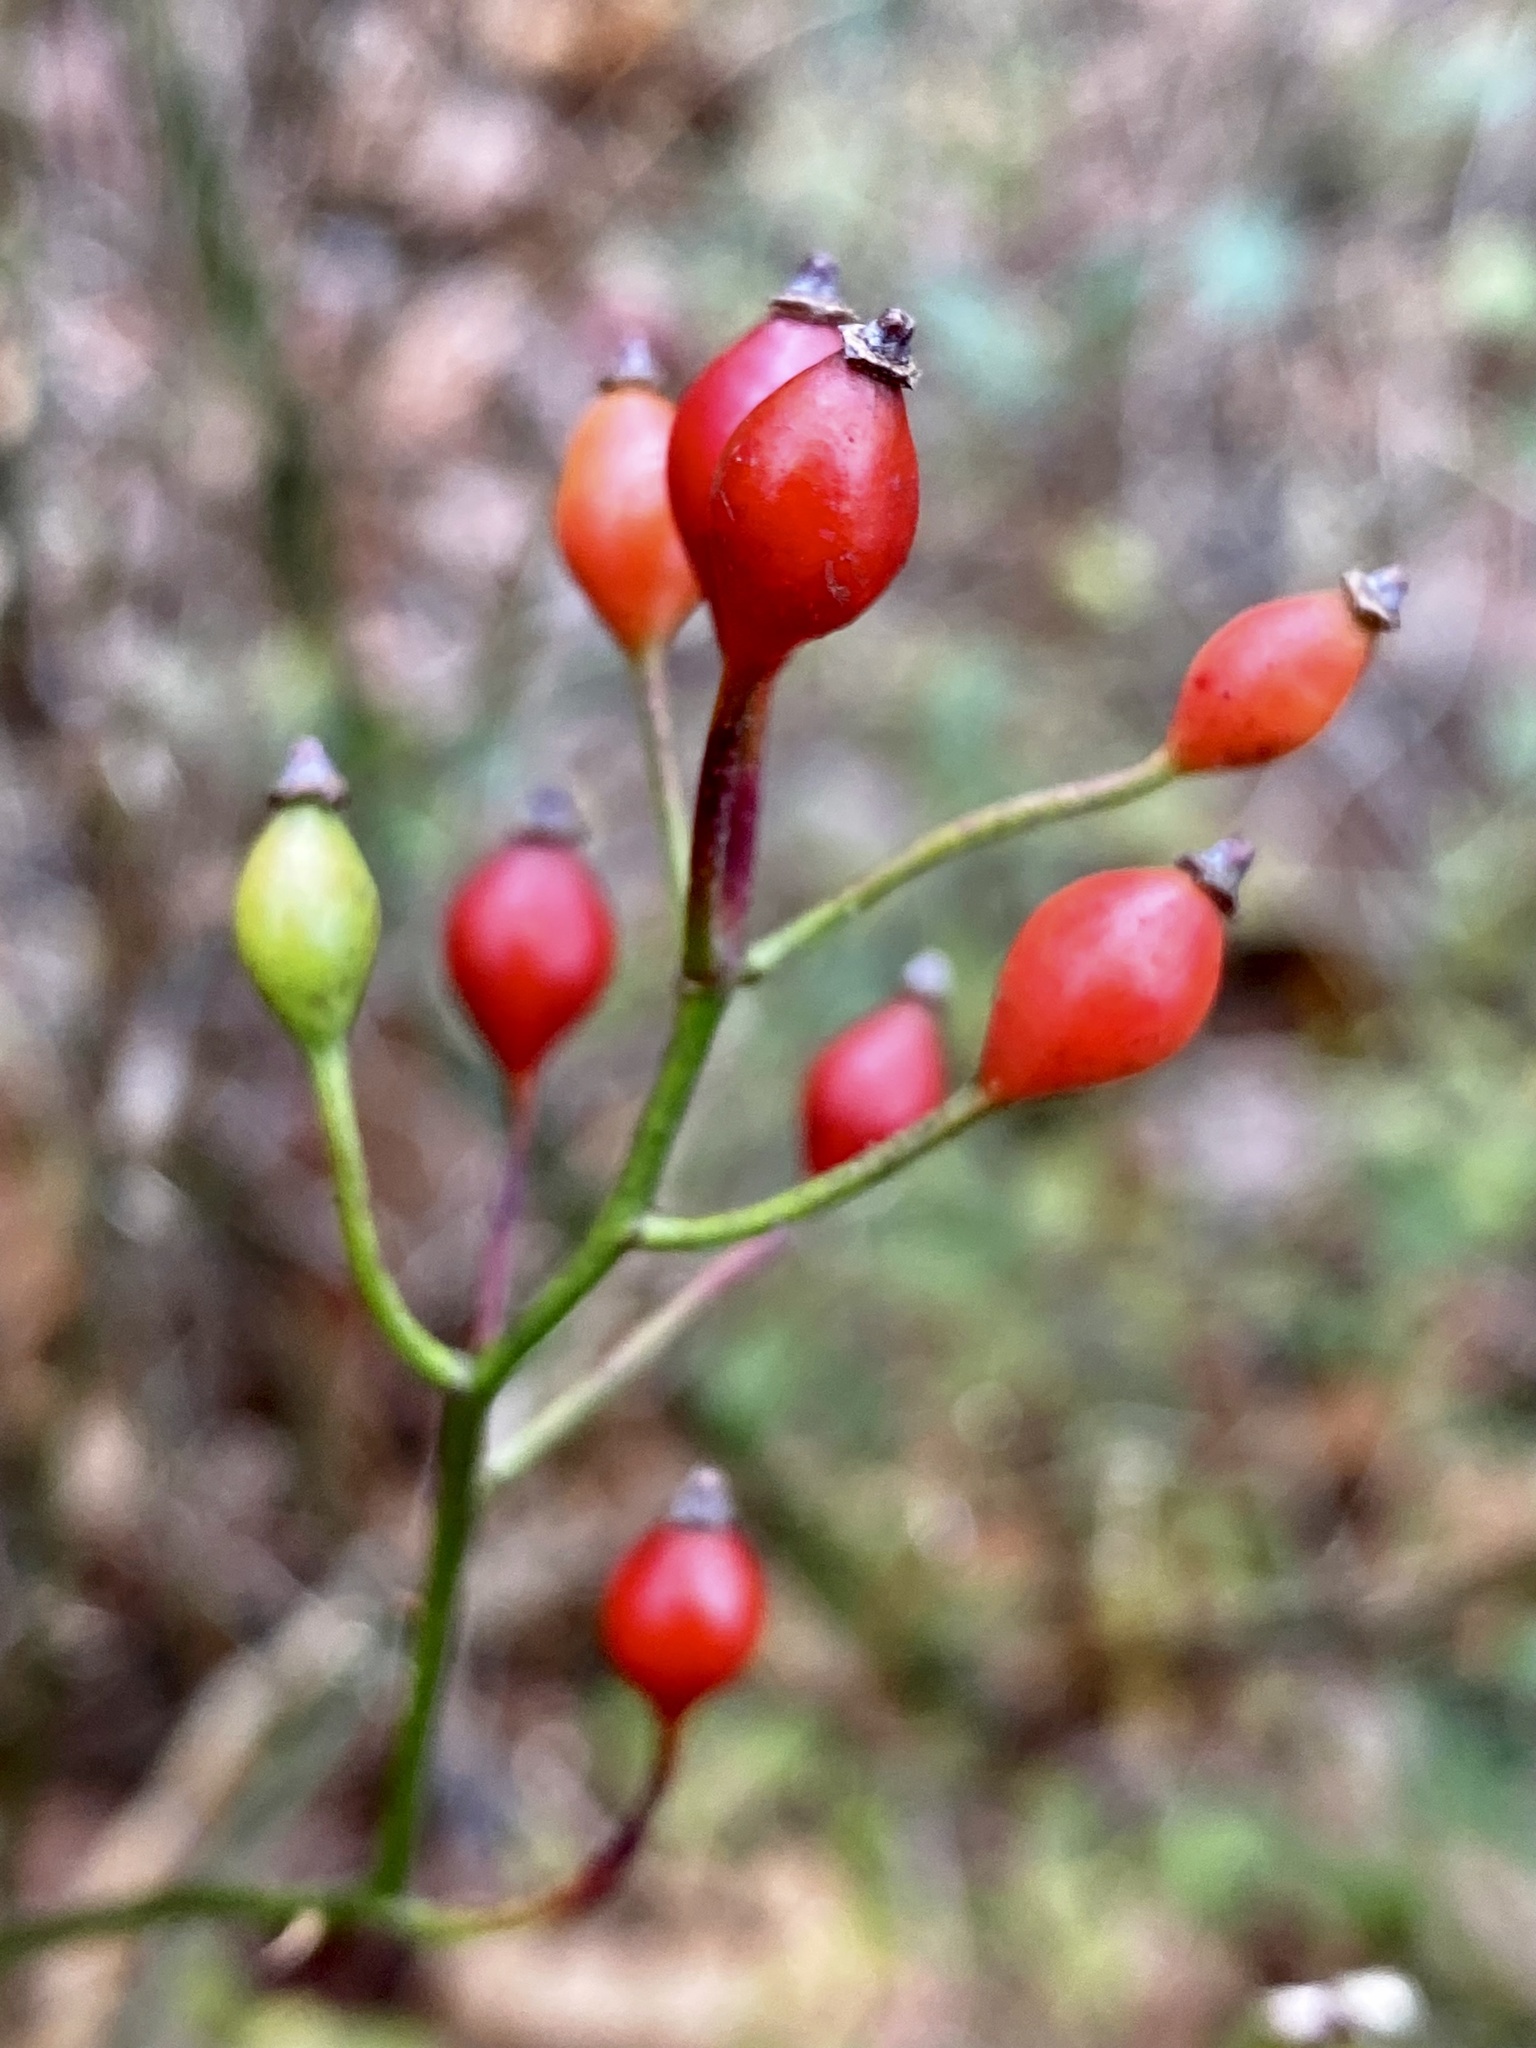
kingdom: Plantae
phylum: Tracheophyta
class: Magnoliopsida
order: Rosales
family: Rosaceae
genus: Rosa
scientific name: Rosa multiflora
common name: Multiflora rose
